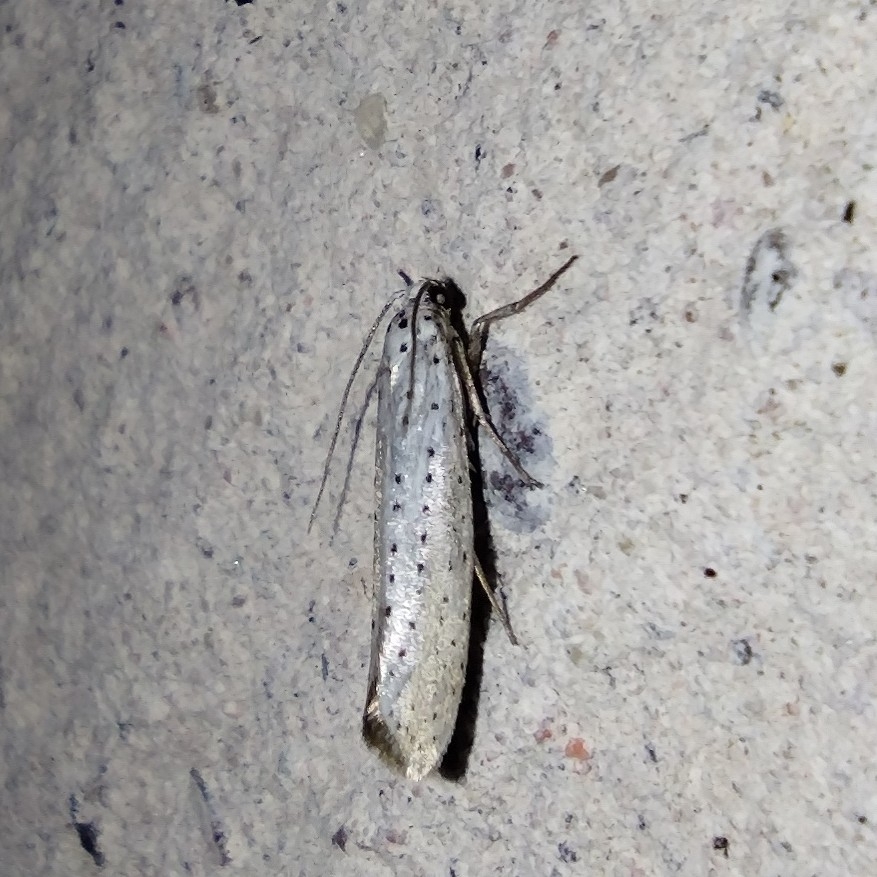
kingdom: Animalia
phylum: Arthropoda
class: Insecta
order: Lepidoptera
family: Yponomeutidae
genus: Yponomeuta
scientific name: Yponomeuta evonymella
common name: Bird-cherry ermine
